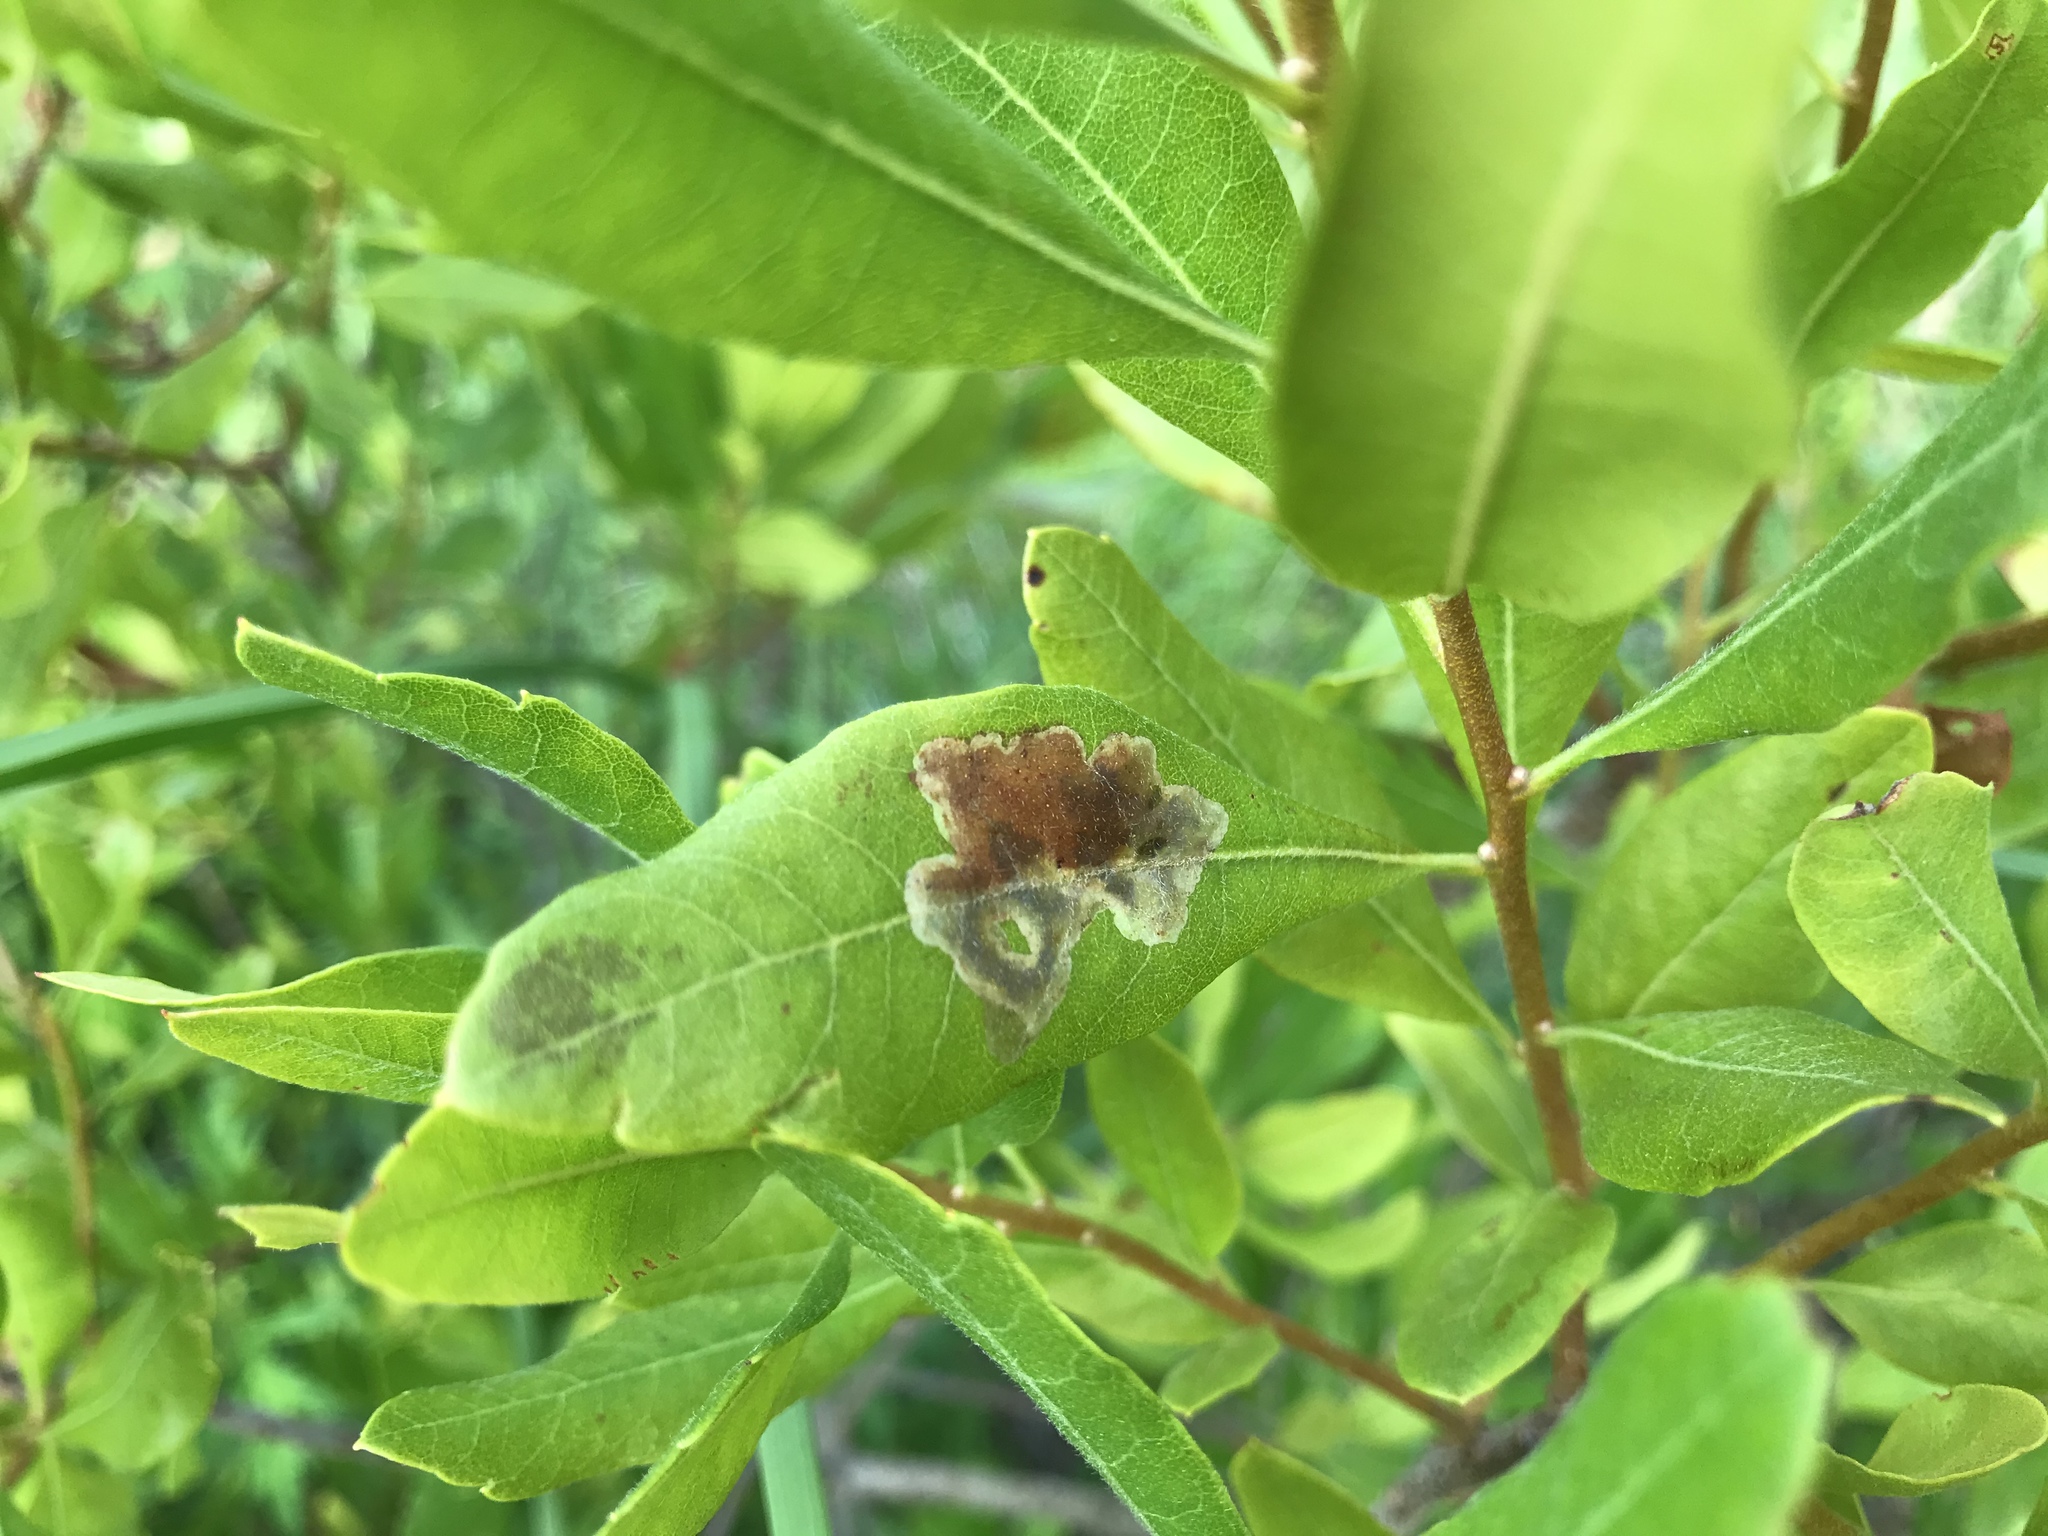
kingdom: Animalia
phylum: Arthropoda
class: Insecta
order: Lepidoptera
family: Gracillariidae
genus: Cameraria
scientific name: Cameraria picturatella
